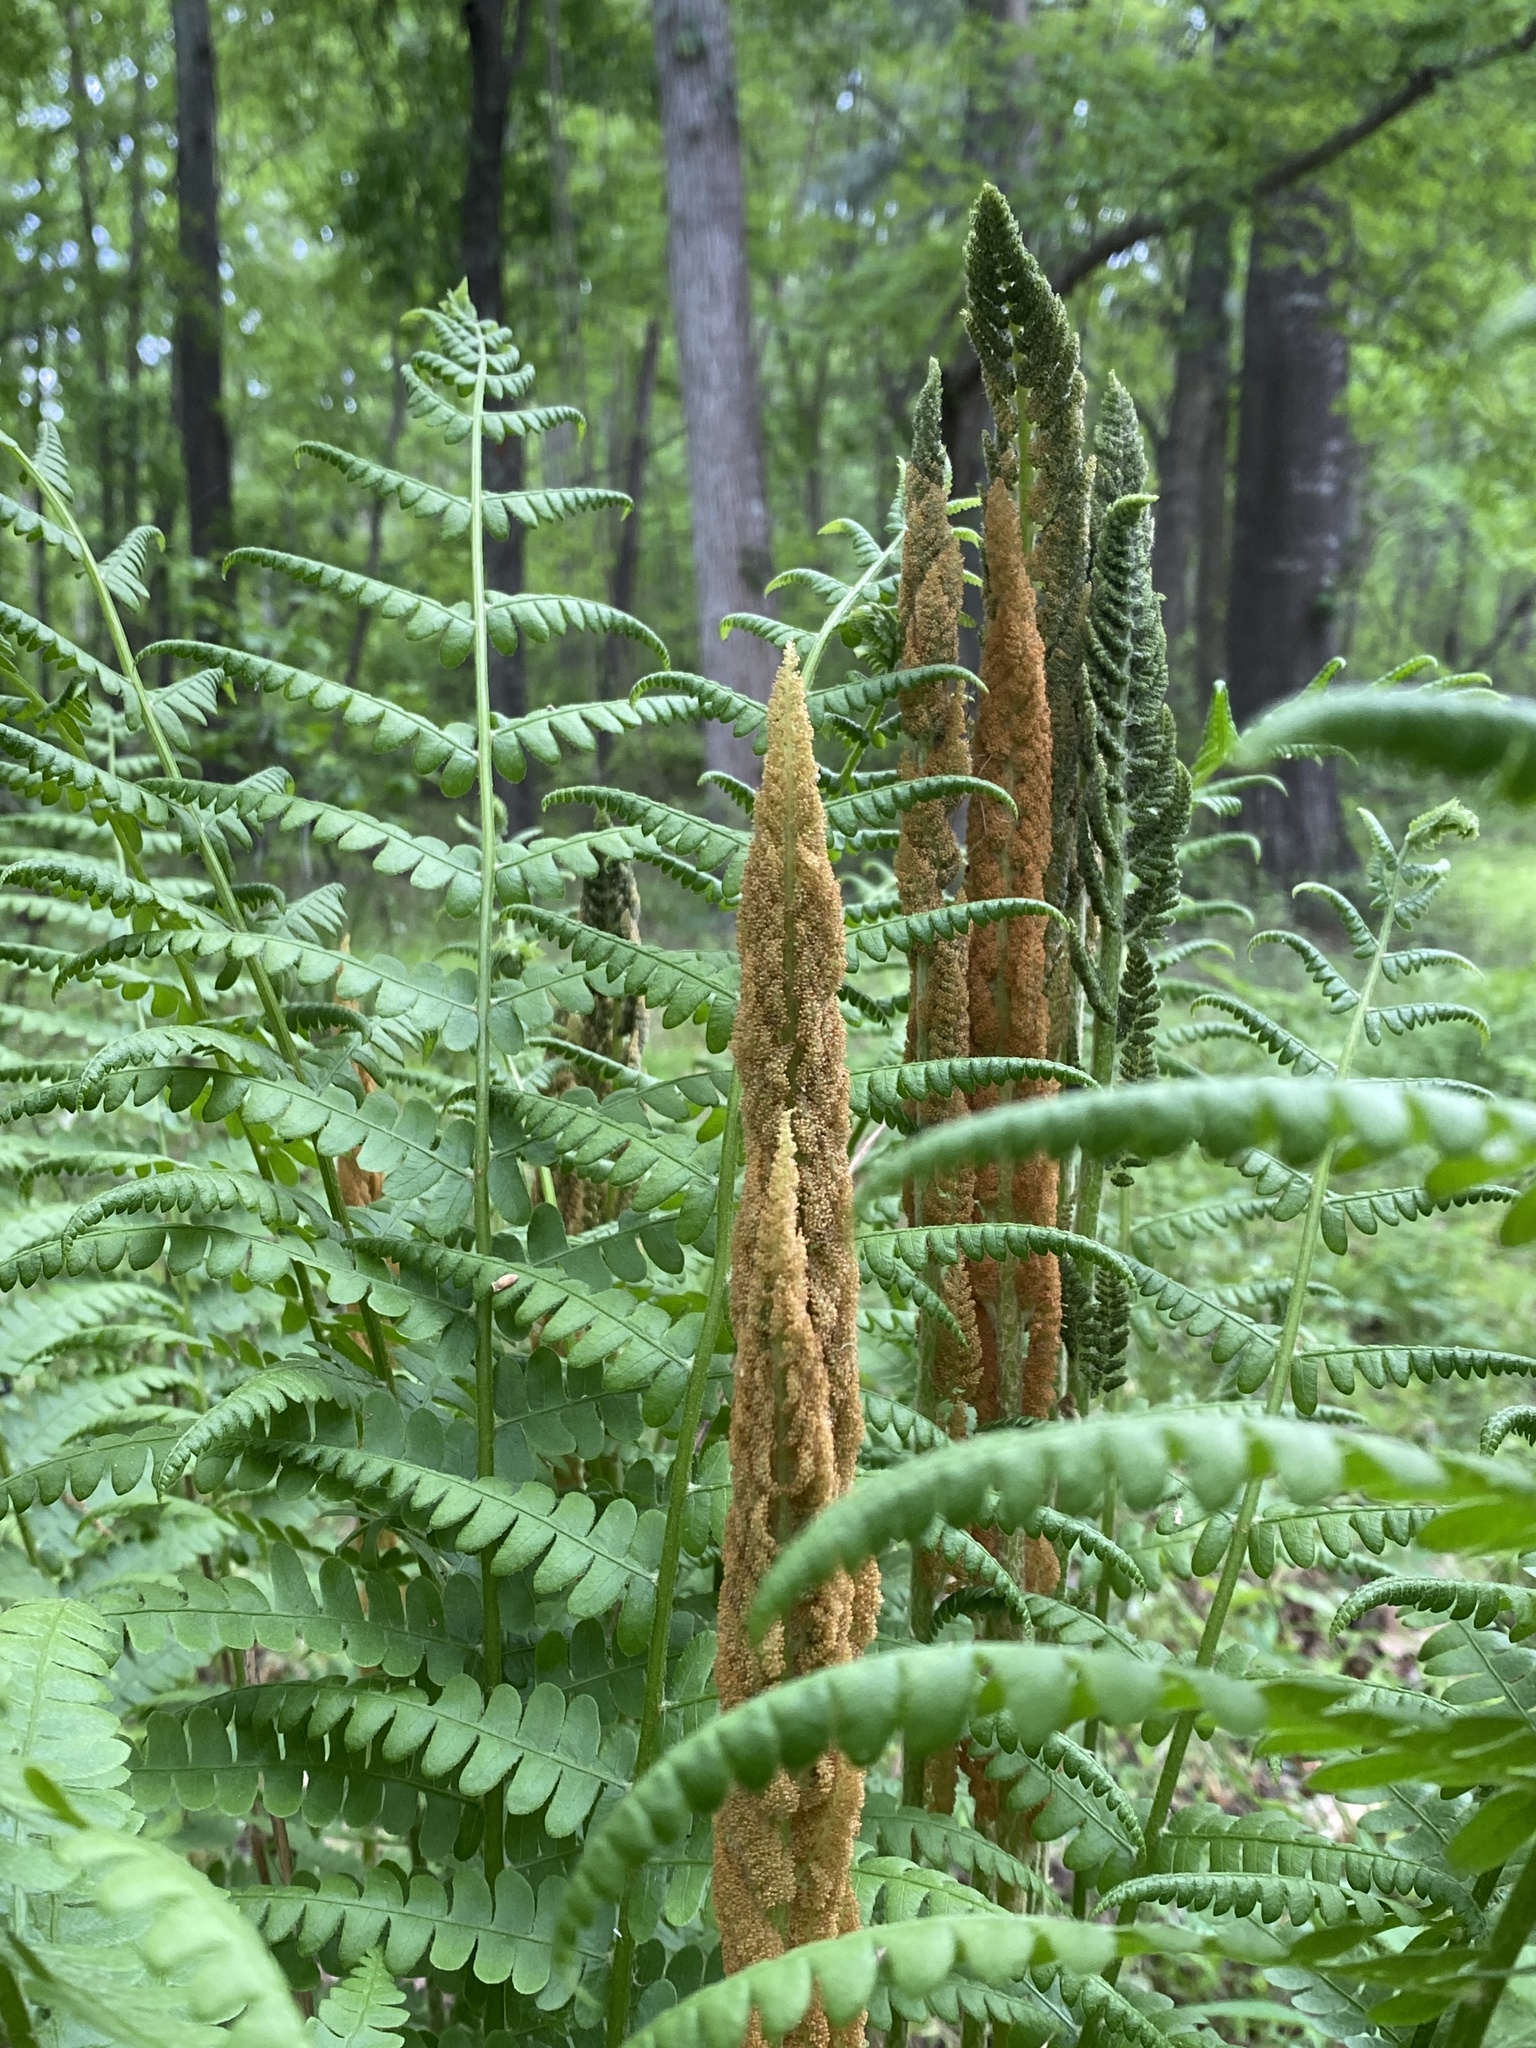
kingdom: Plantae
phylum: Tracheophyta
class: Polypodiopsida
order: Osmundales
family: Osmundaceae
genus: Osmundastrum
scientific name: Osmundastrum cinnamomeum
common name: Cinnamon fern
